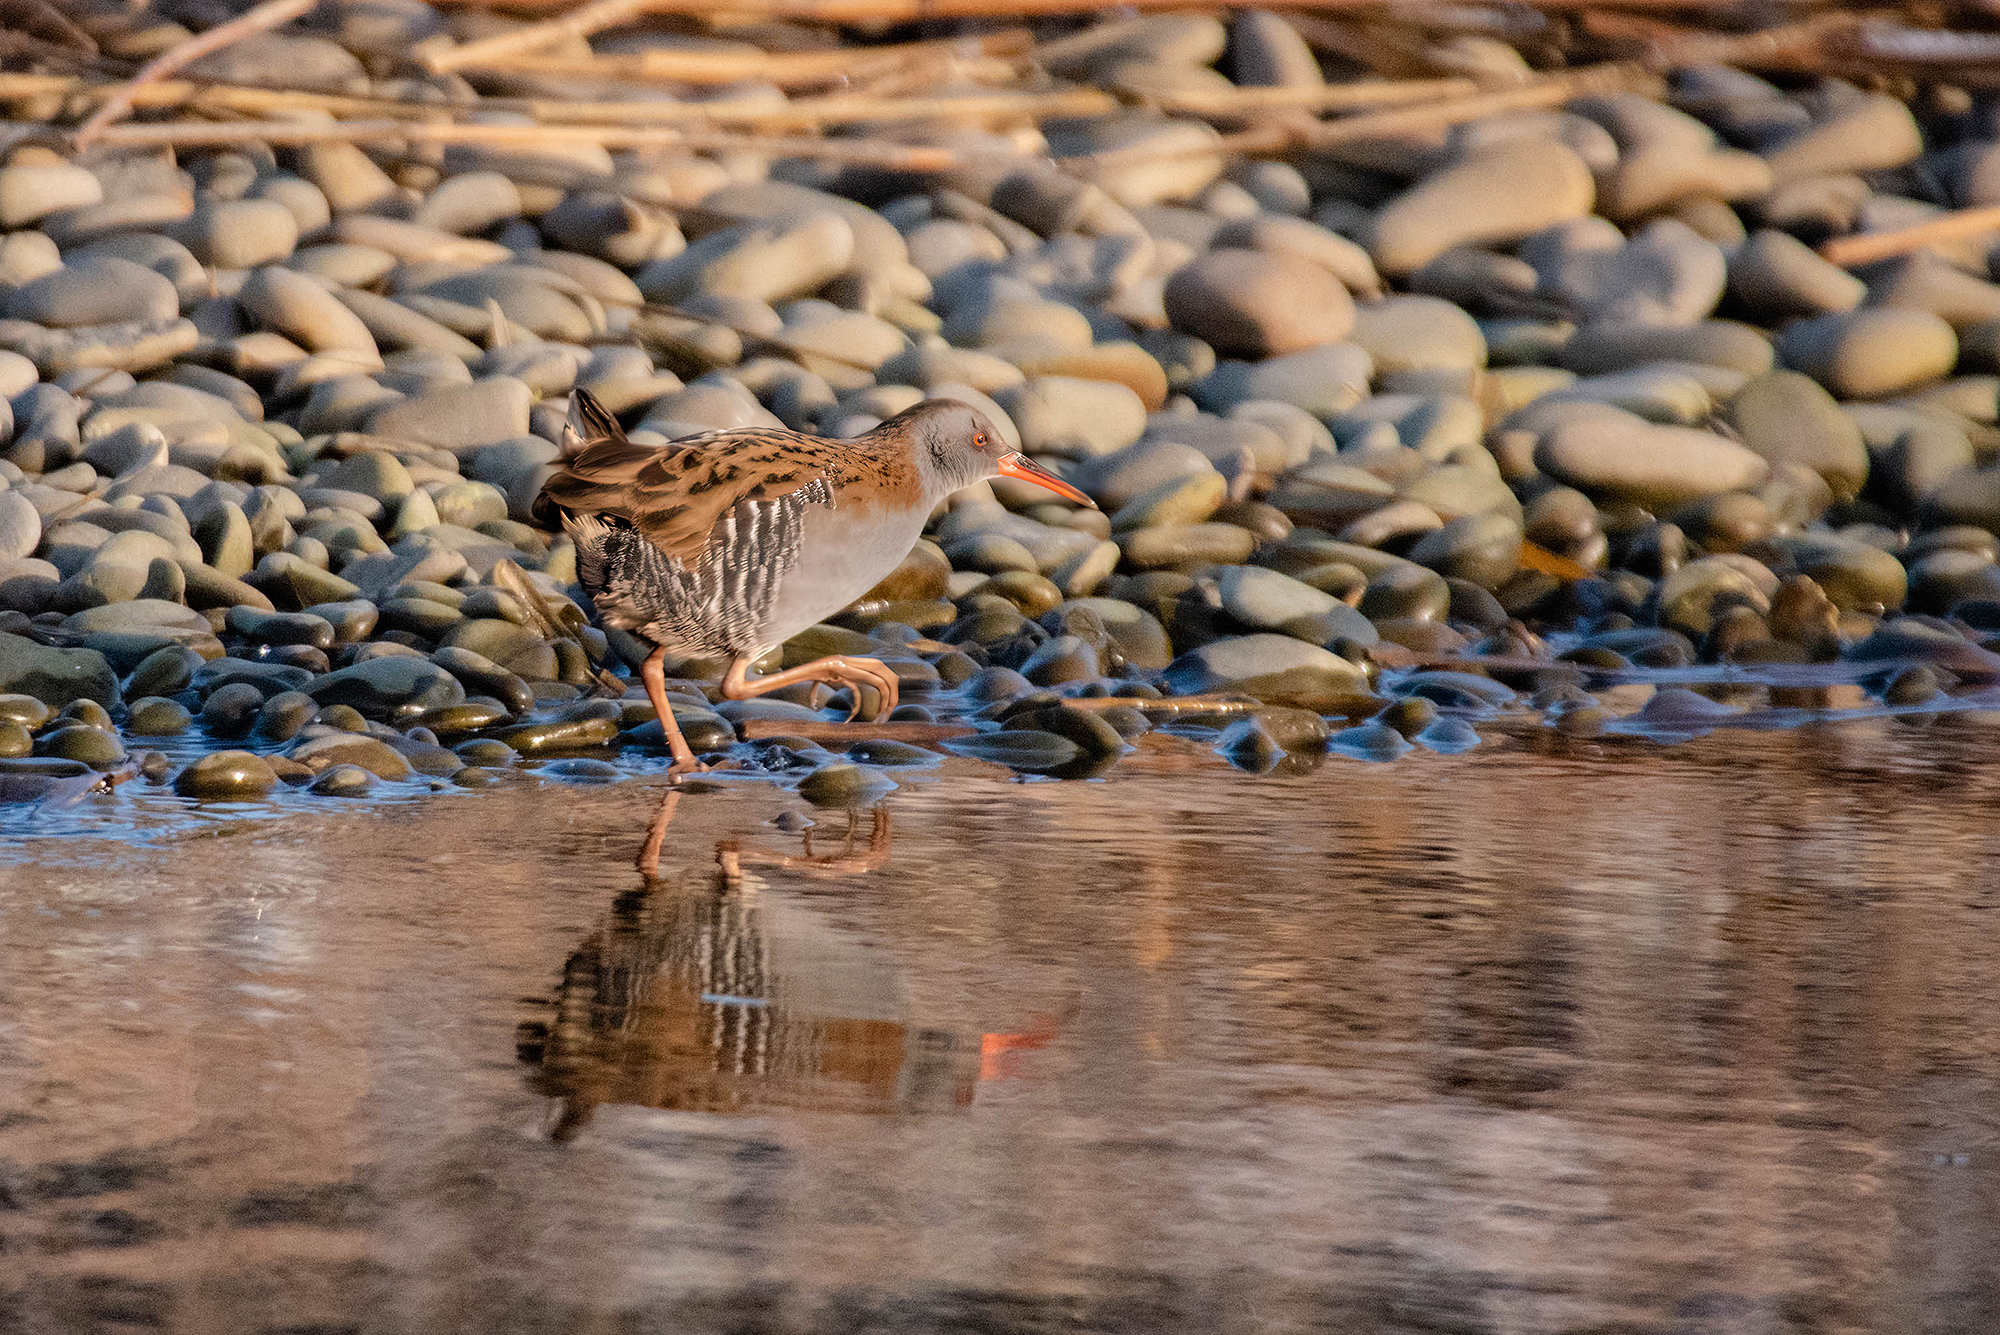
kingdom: Animalia
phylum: Chordata
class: Aves
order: Gruiformes
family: Rallidae
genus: Rallus
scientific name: Rallus aquaticus
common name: Water rail
